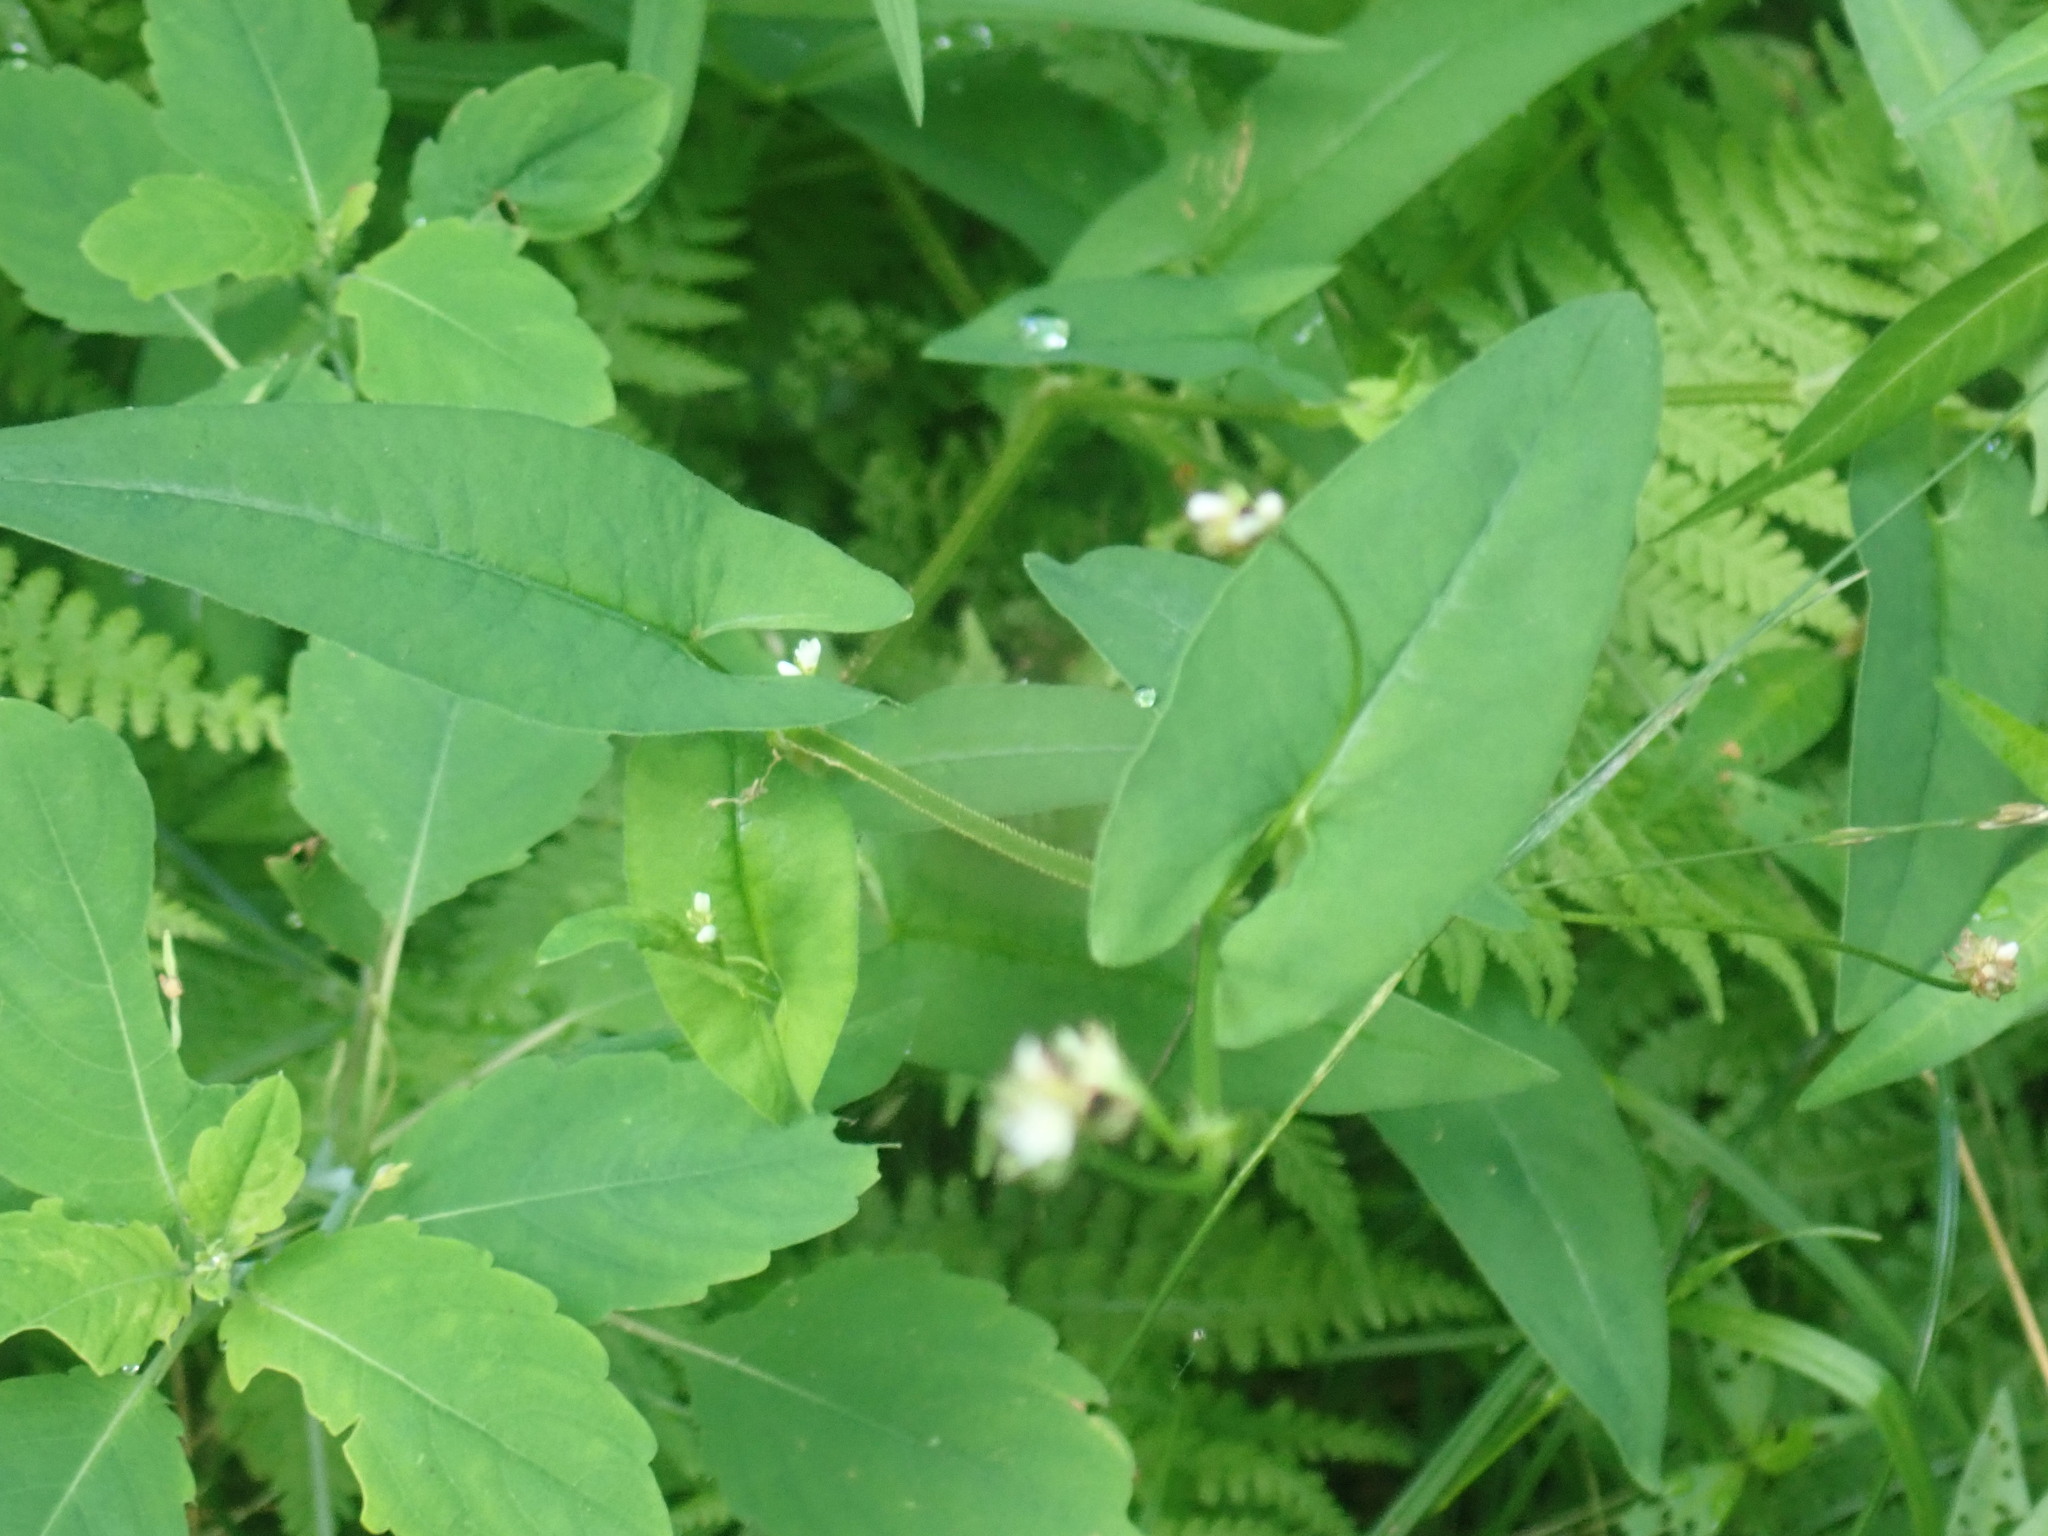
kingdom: Plantae
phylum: Tracheophyta
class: Magnoliopsida
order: Caryophyllales
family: Polygonaceae
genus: Persicaria
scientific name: Persicaria sagittata
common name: American tearthumb
